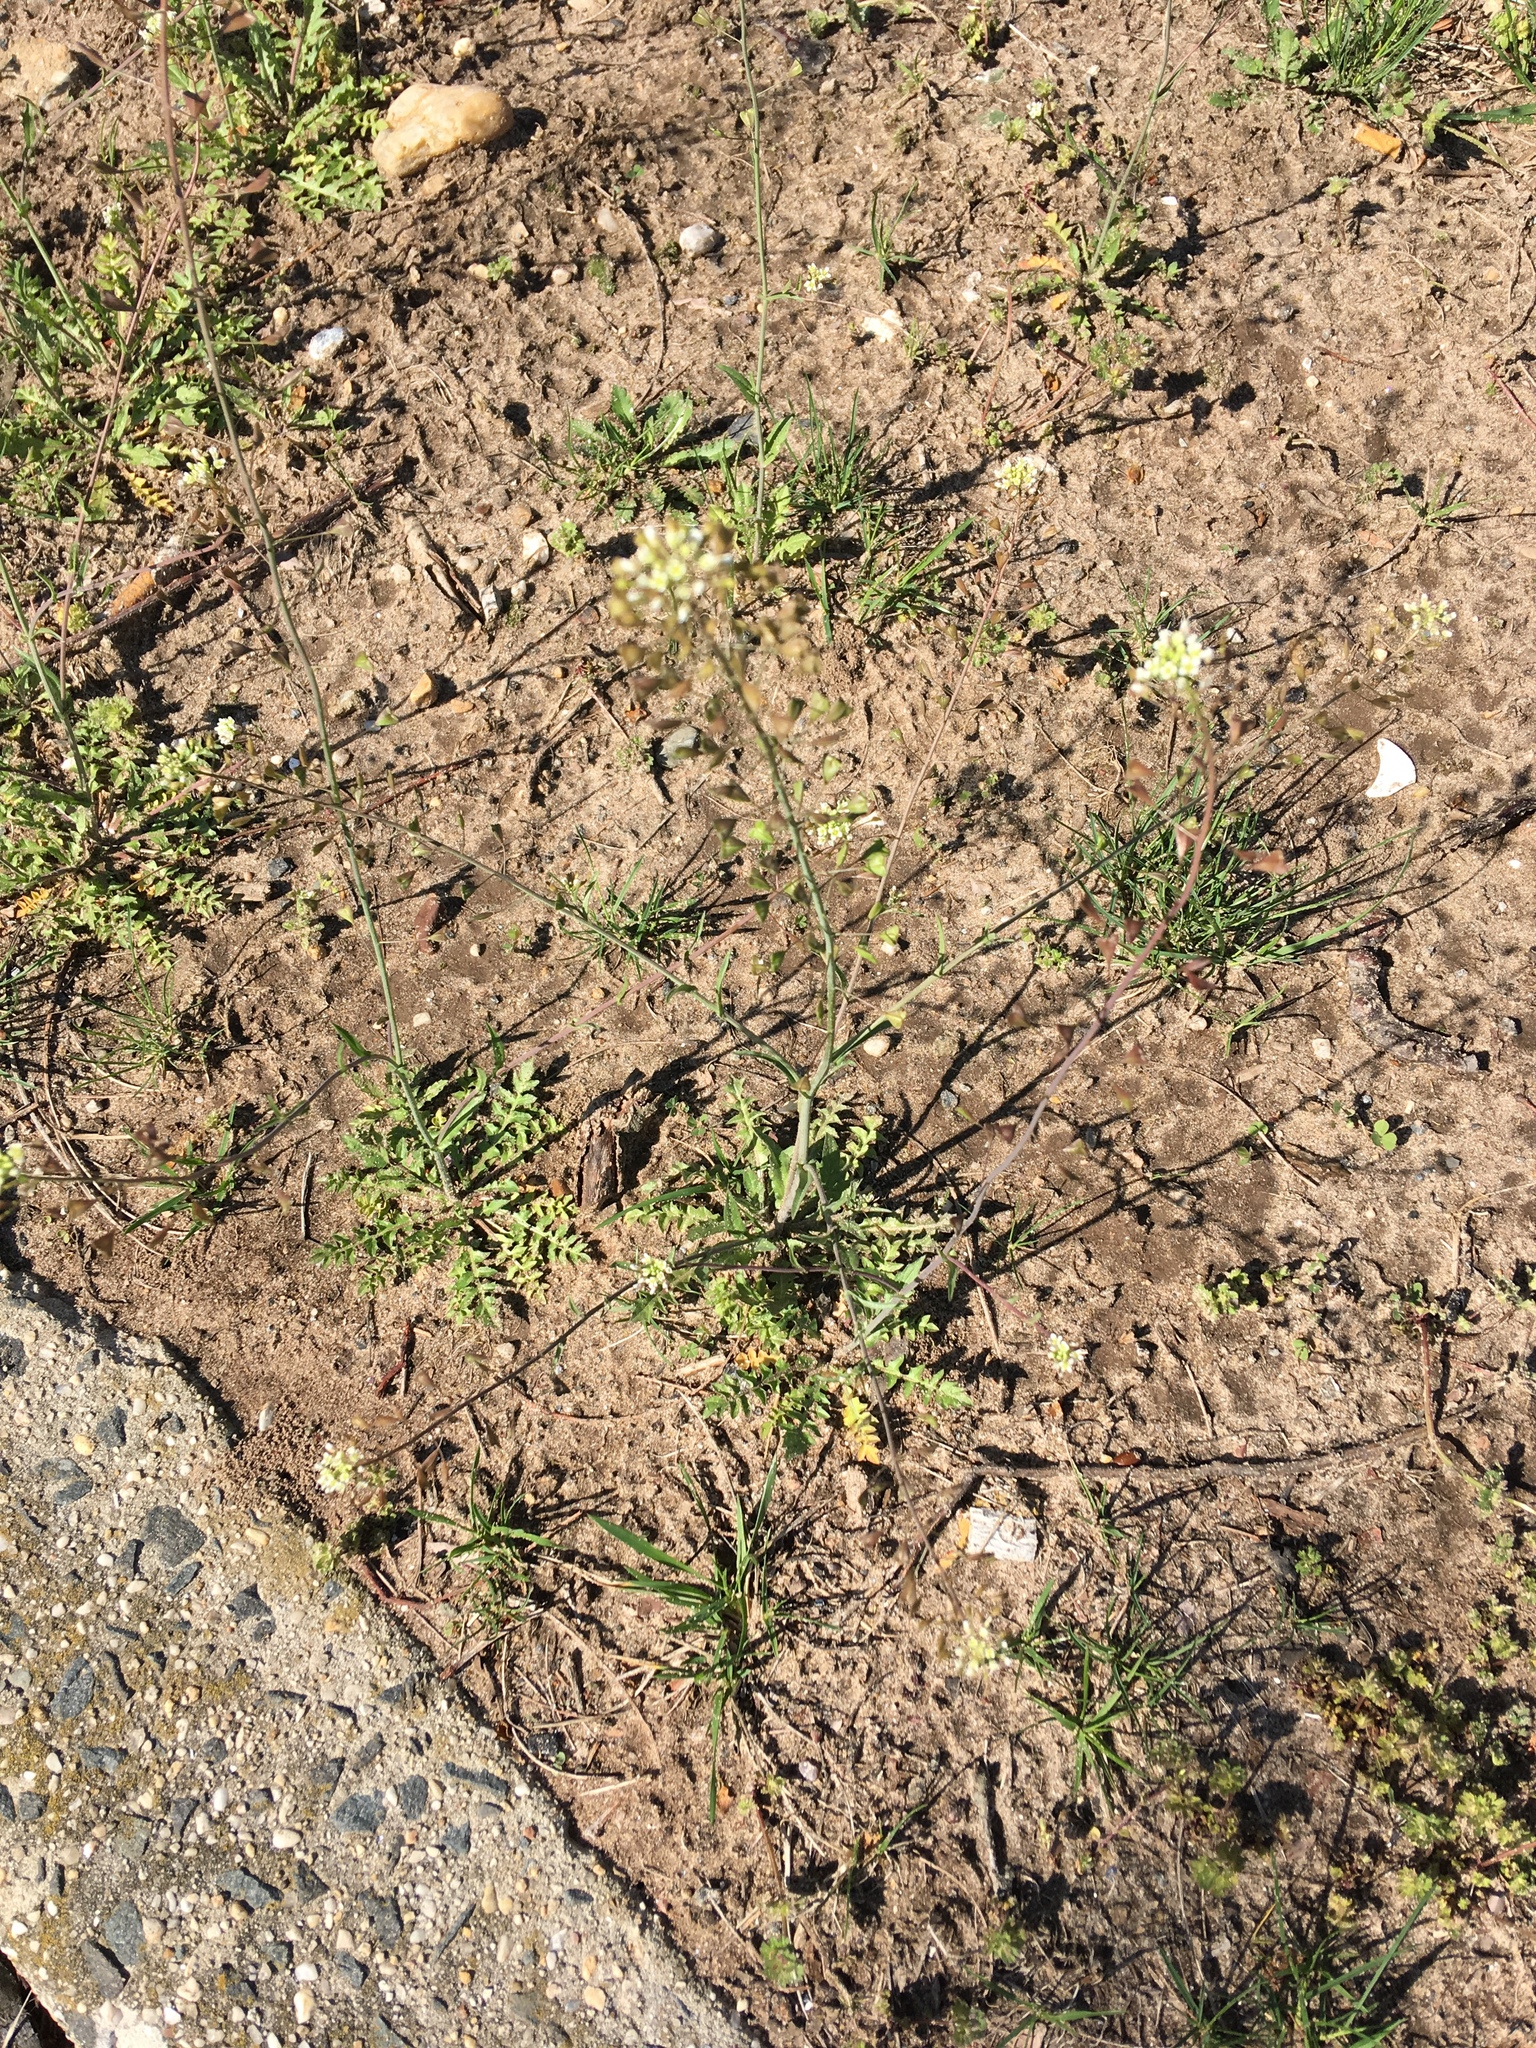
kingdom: Plantae
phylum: Tracheophyta
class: Magnoliopsida
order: Brassicales
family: Brassicaceae
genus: Capsella
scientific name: Capsella bursa-pastoris
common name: Shepherd's purse
